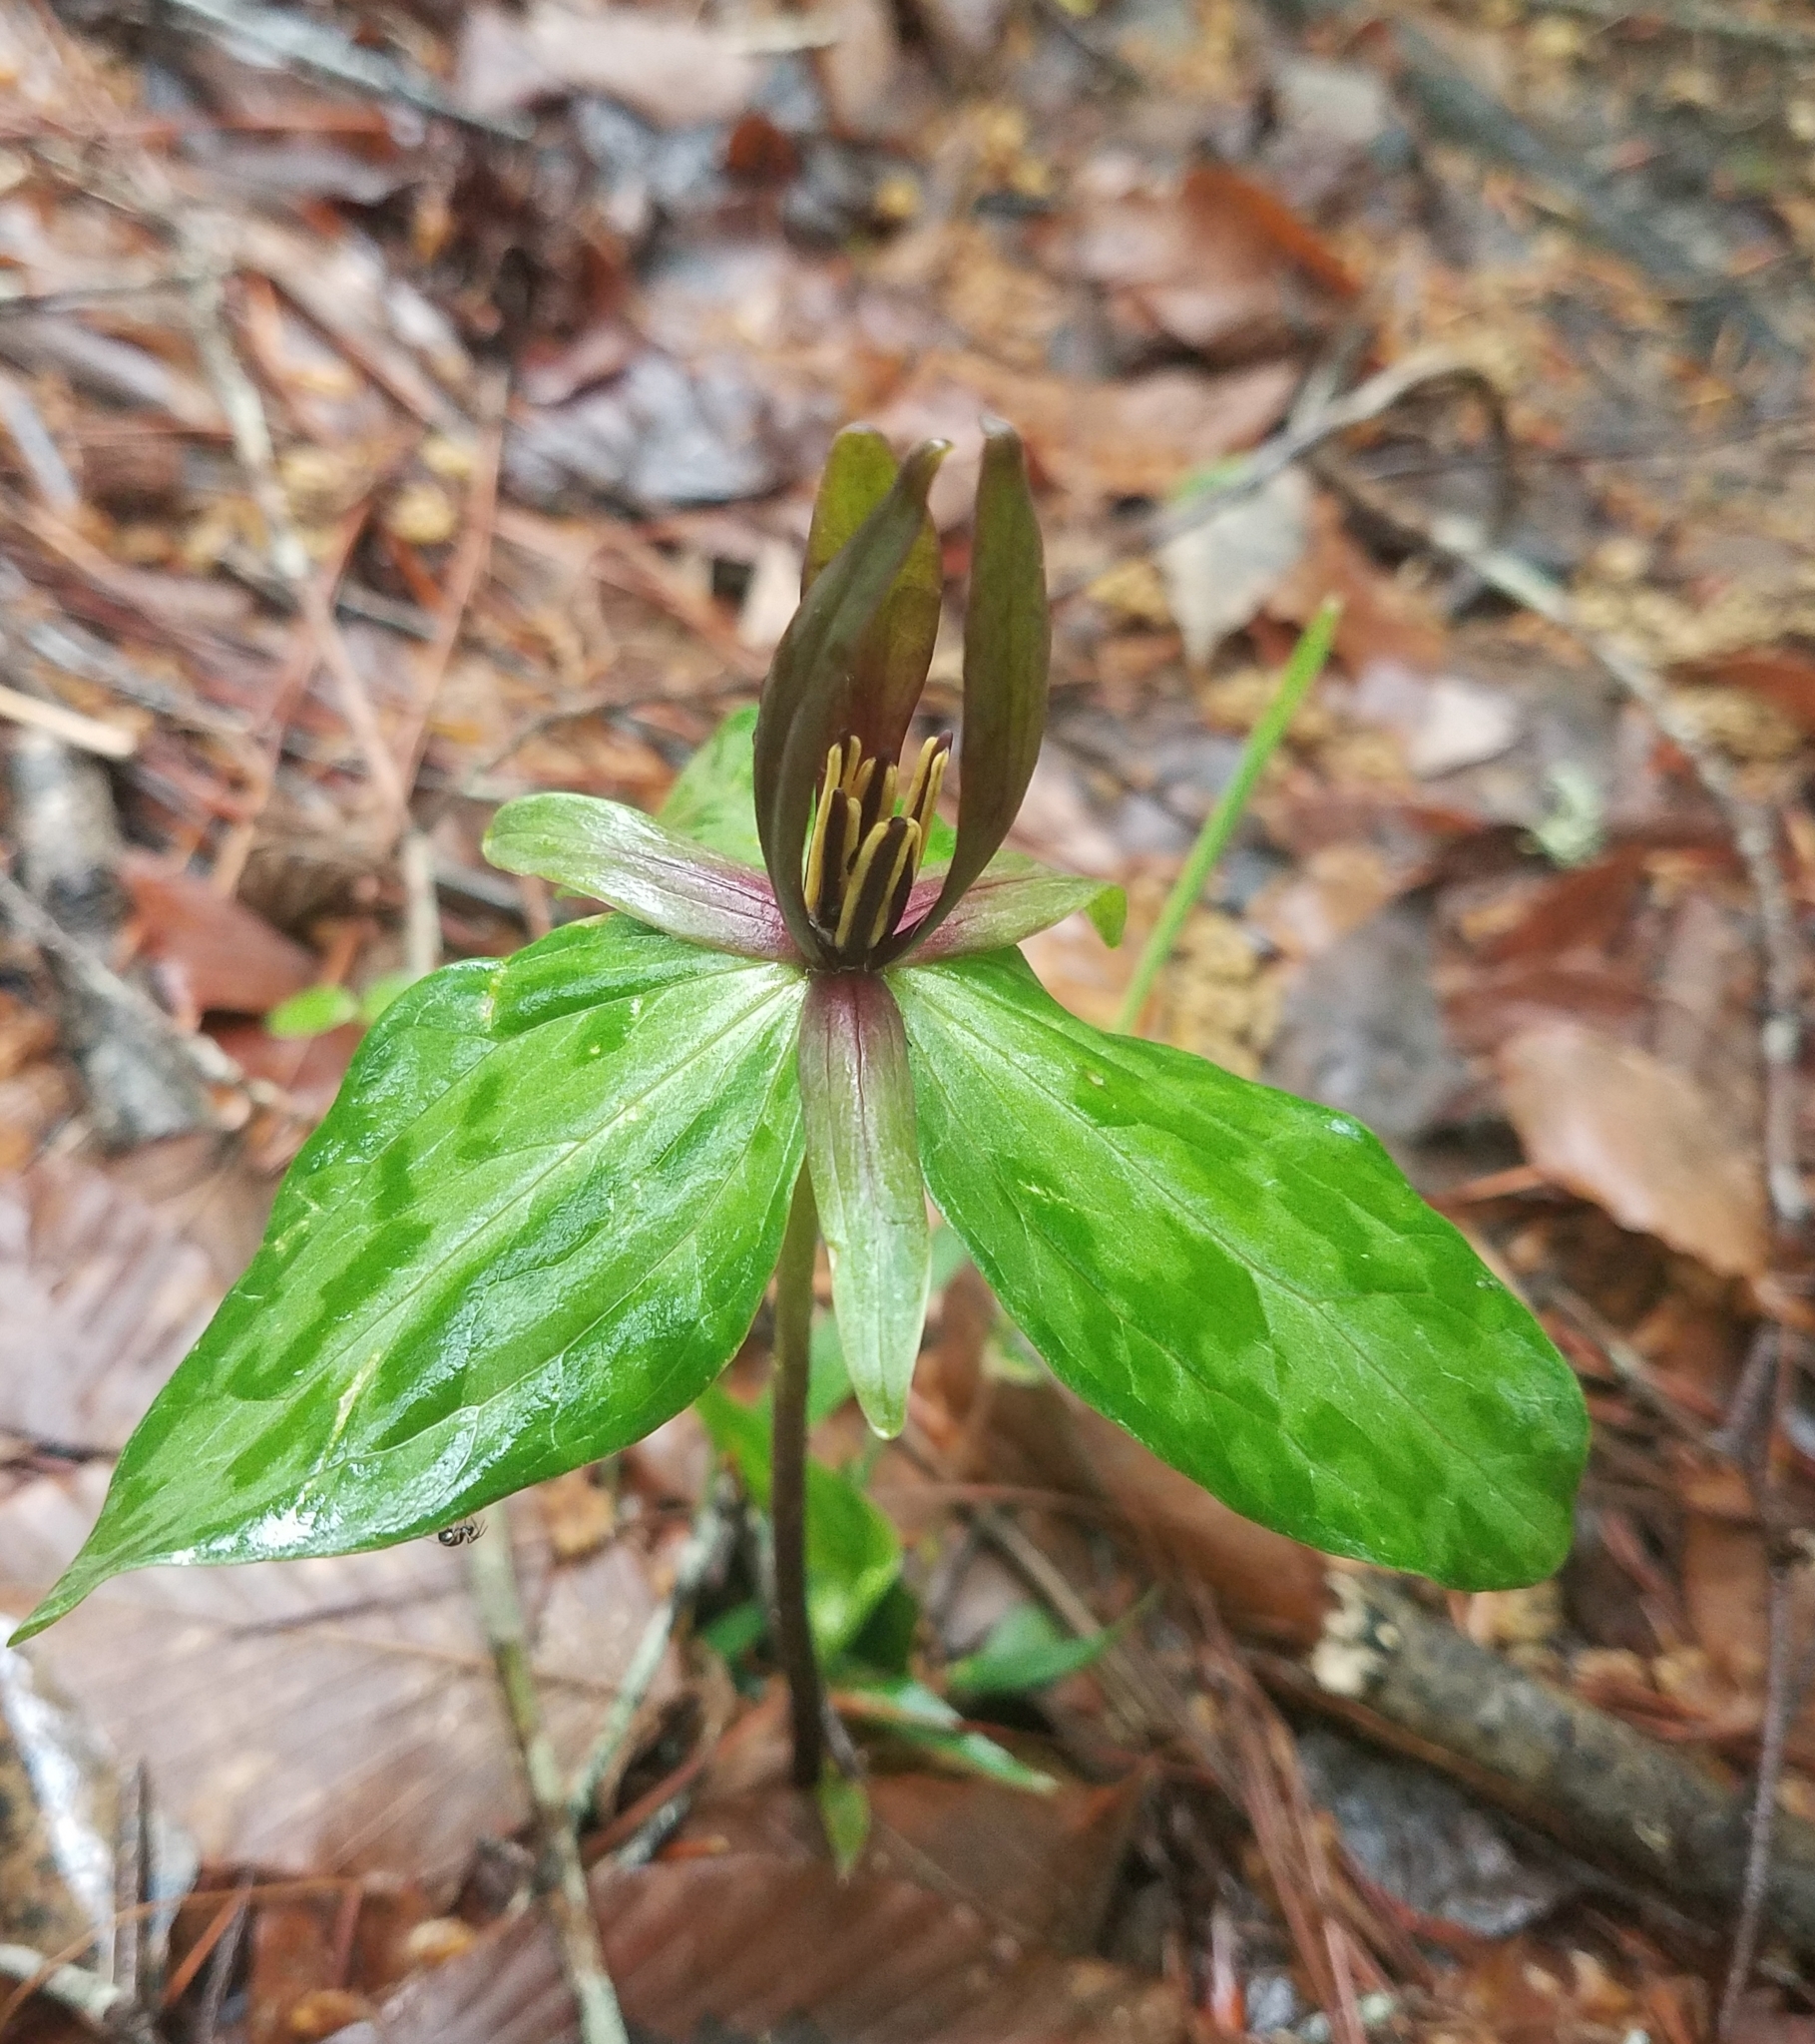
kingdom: Plantae
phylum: Tracheophyta
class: Liliopsida
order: Liliales
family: Melanthiaceae
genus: Trillium
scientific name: Trillium ludovicianum
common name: Louisiana toadshade
